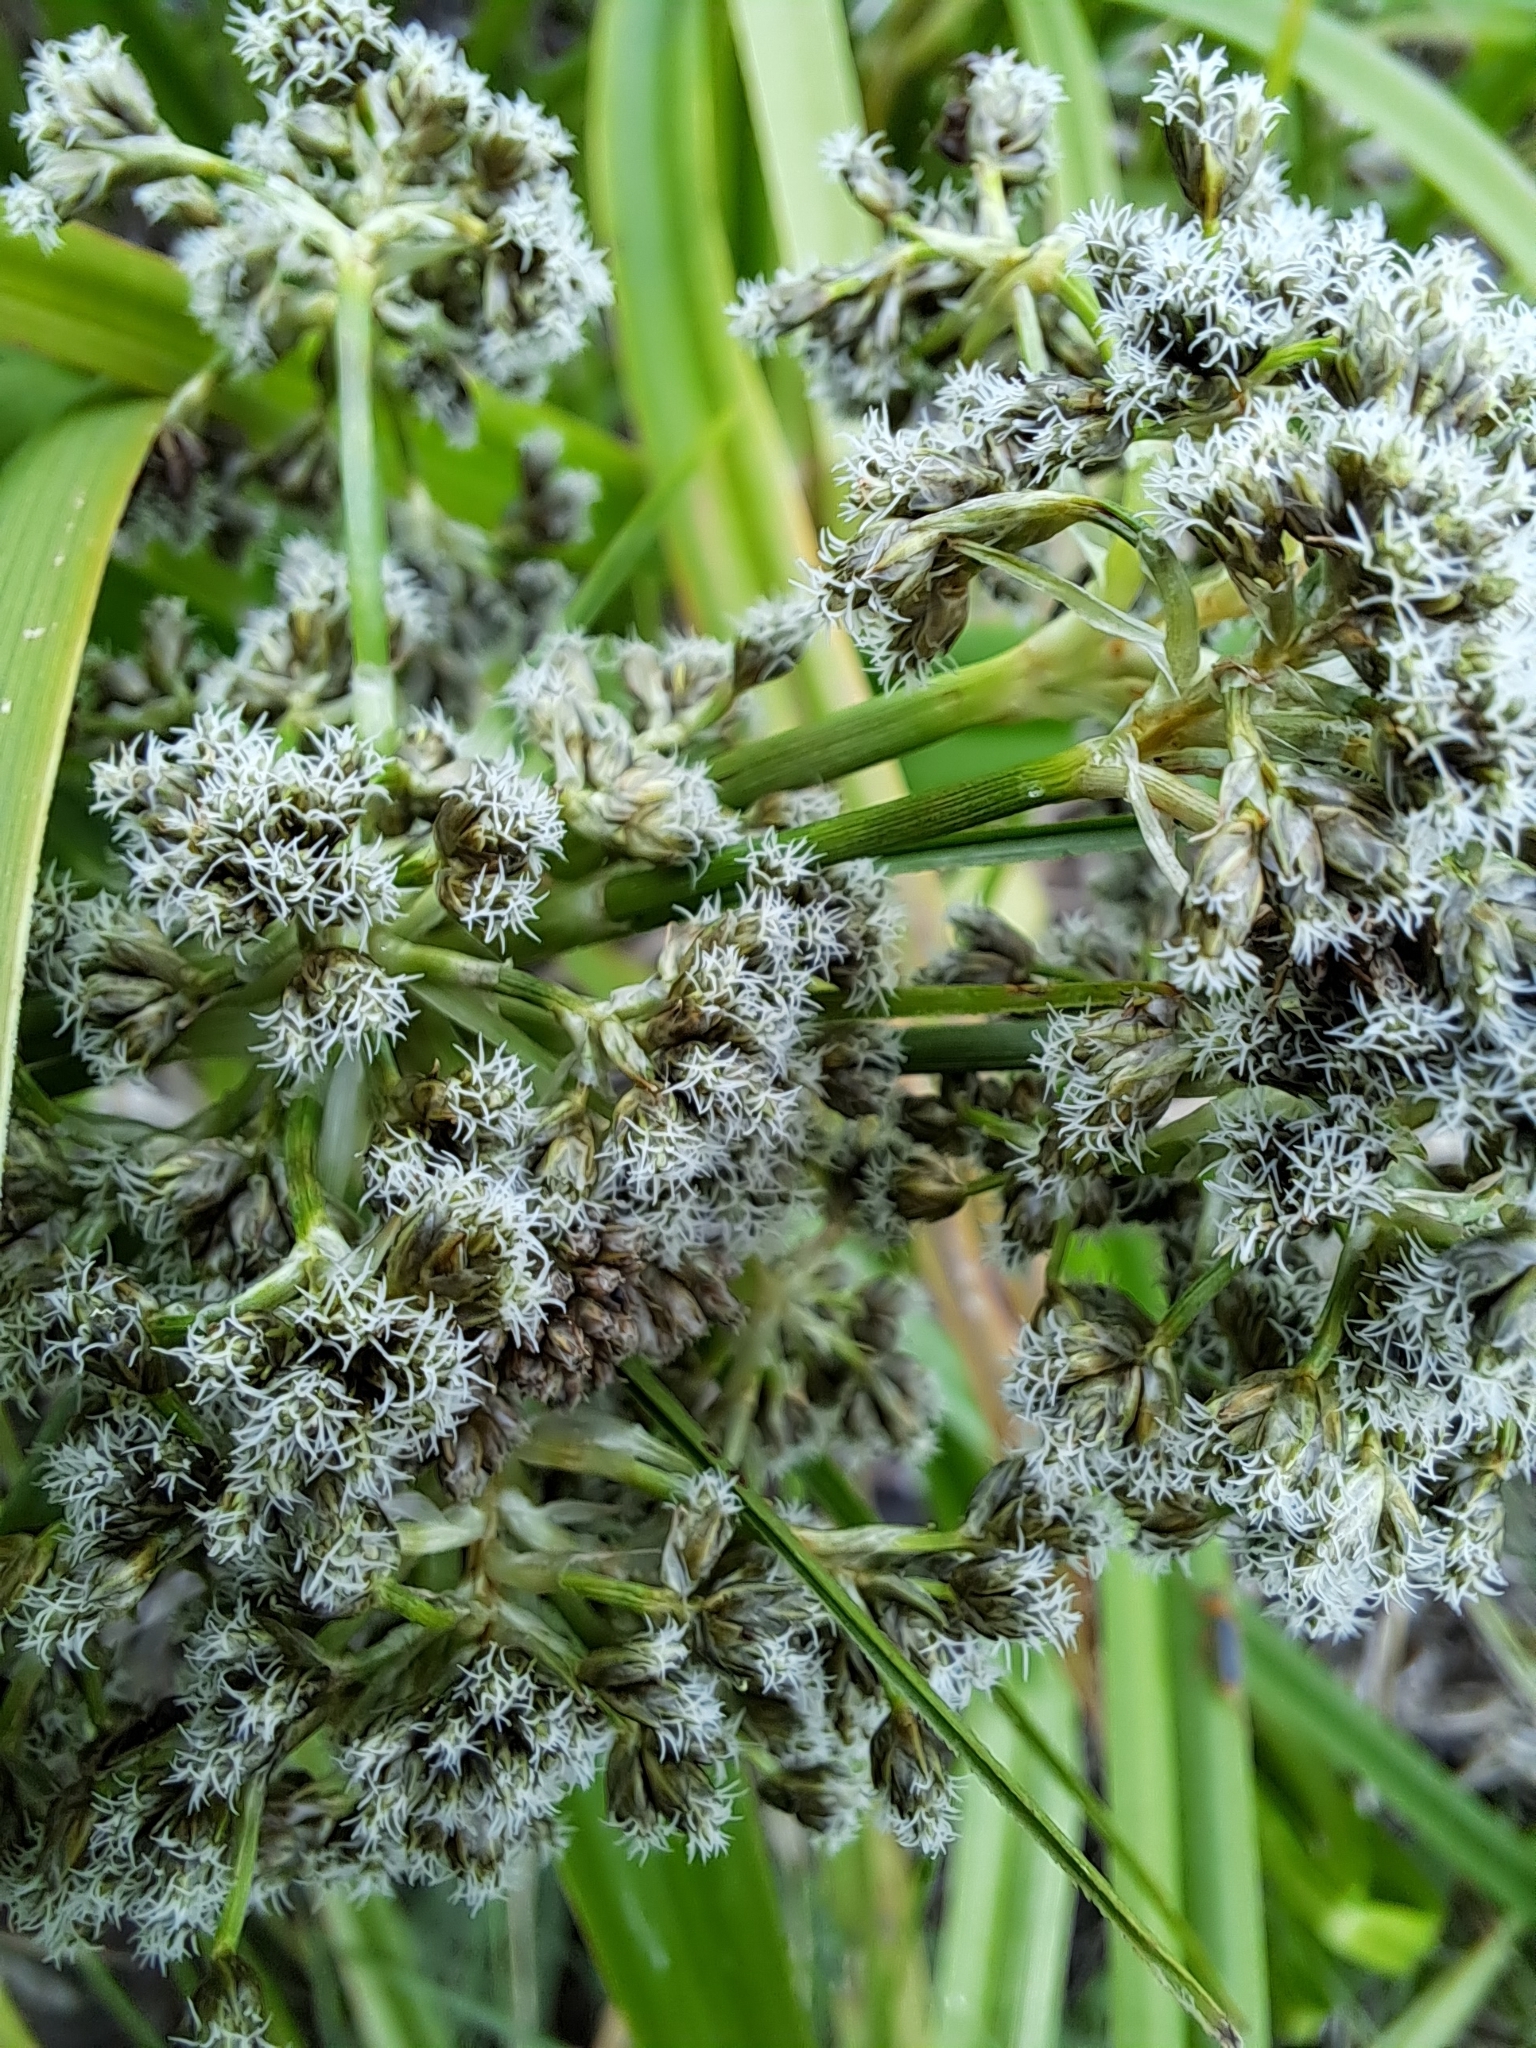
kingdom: Plantae
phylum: Tracheophyta
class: Liliopsida
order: Poales
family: Cyperaceae
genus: Scirpus
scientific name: Scirpus sylvaticus
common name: Wood club-rush
